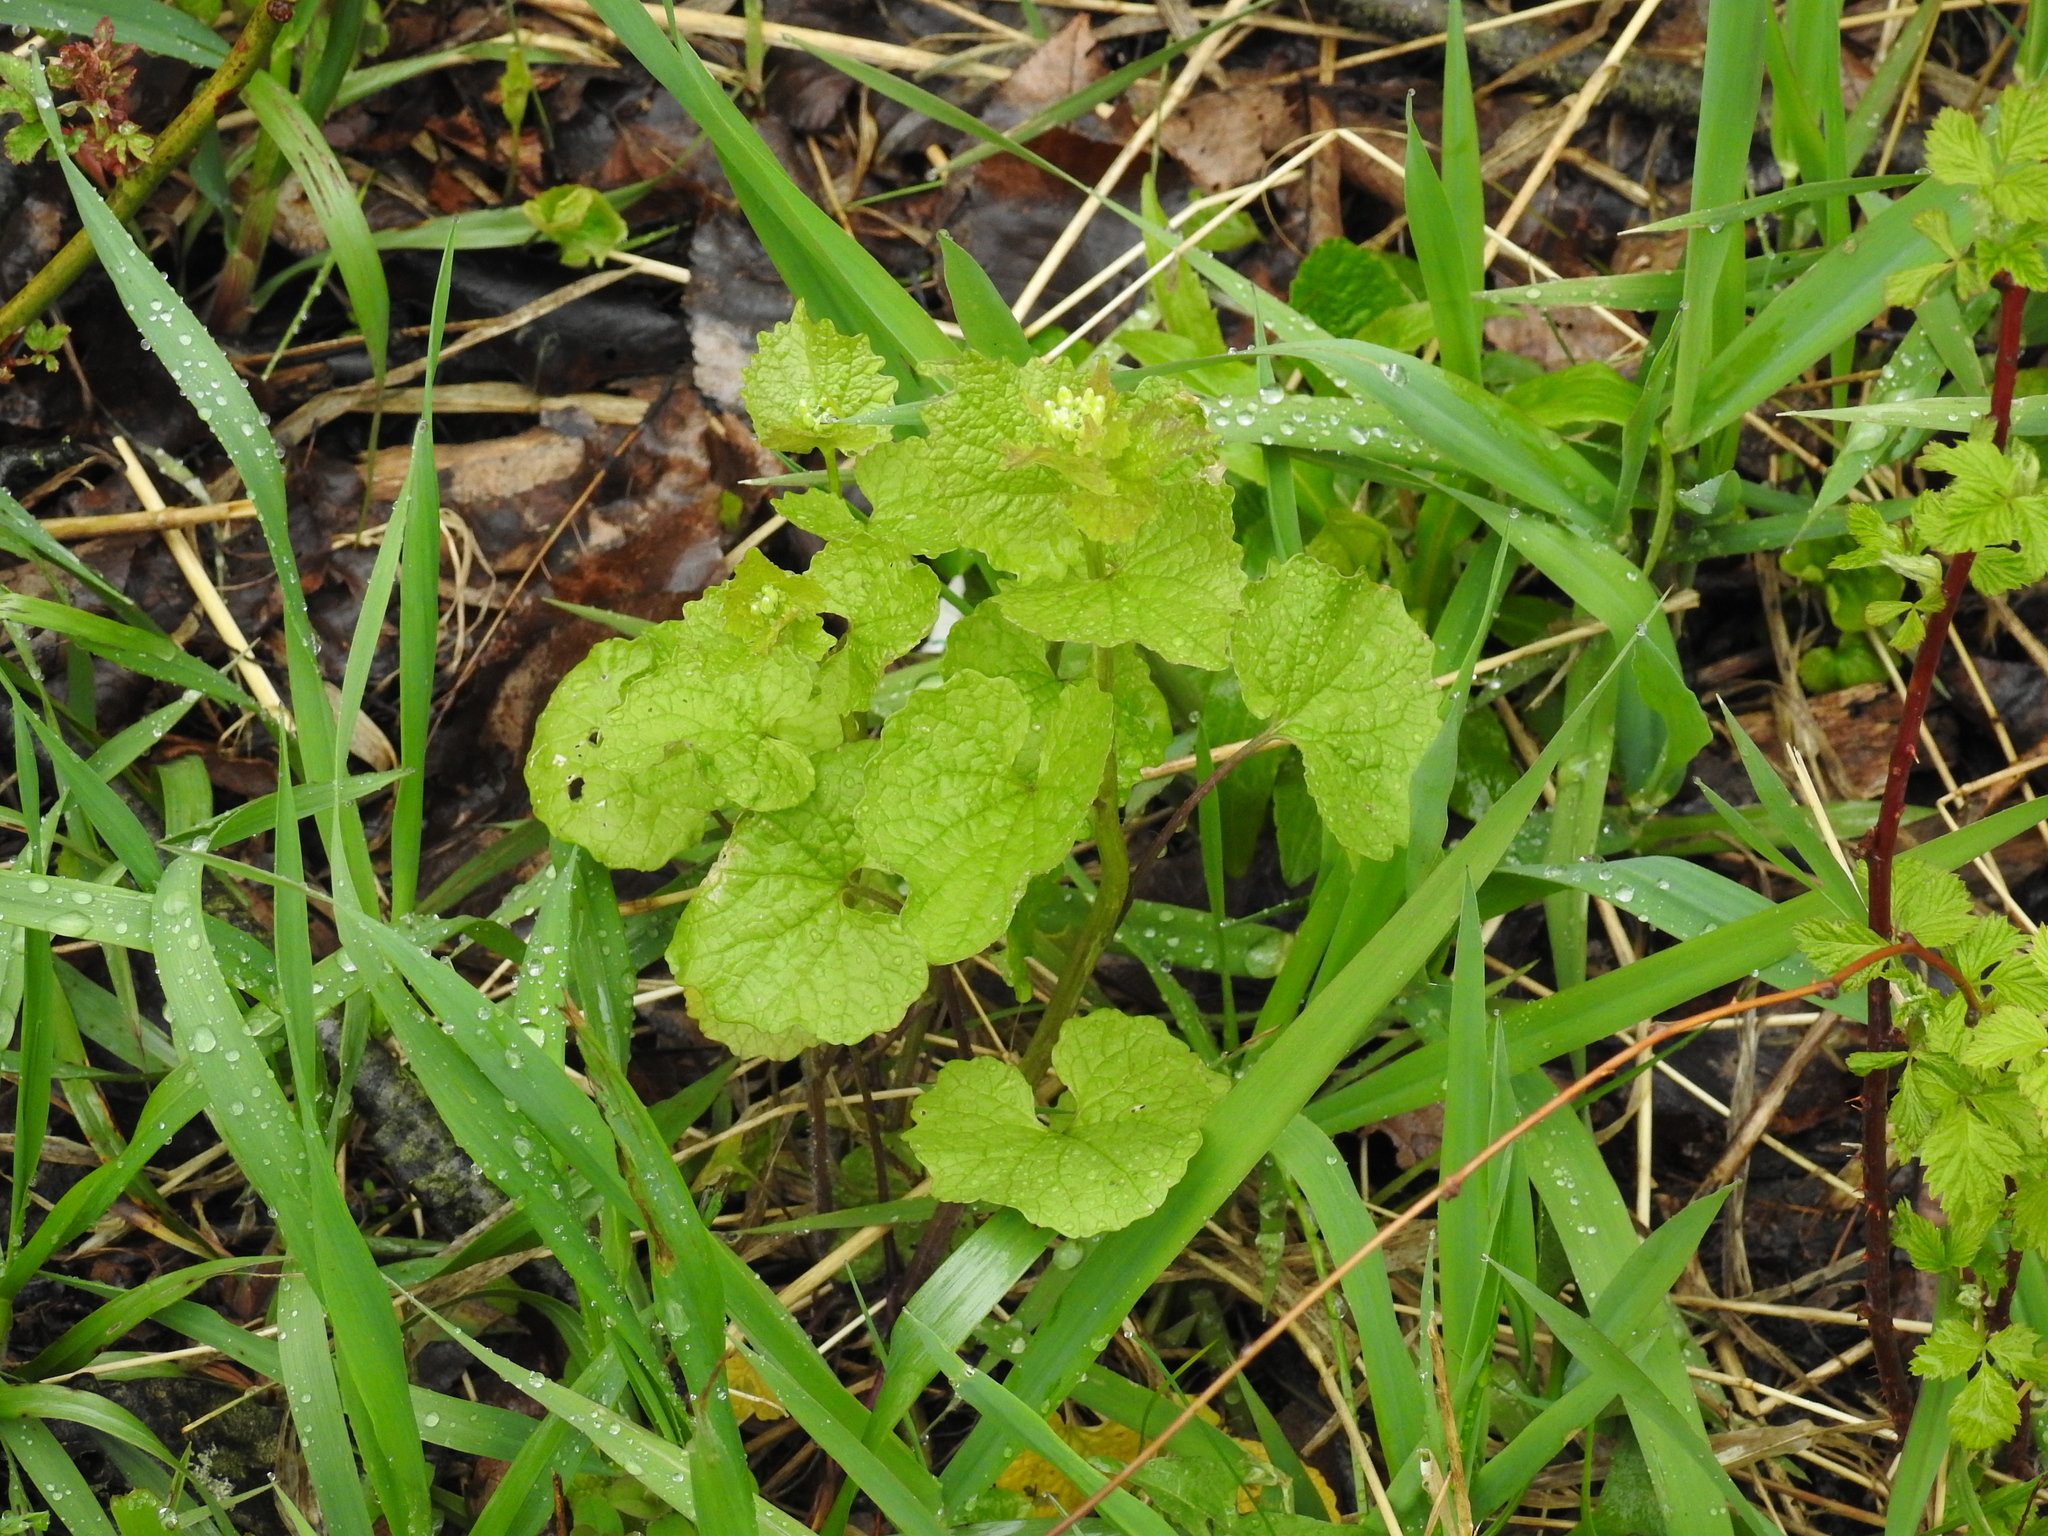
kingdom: Plantae
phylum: Tracheophyta
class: Magnoliopsida
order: Brassicales
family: Brassicaceae
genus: Alliaria
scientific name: Alliaria petiolata
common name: Garlic mustard
